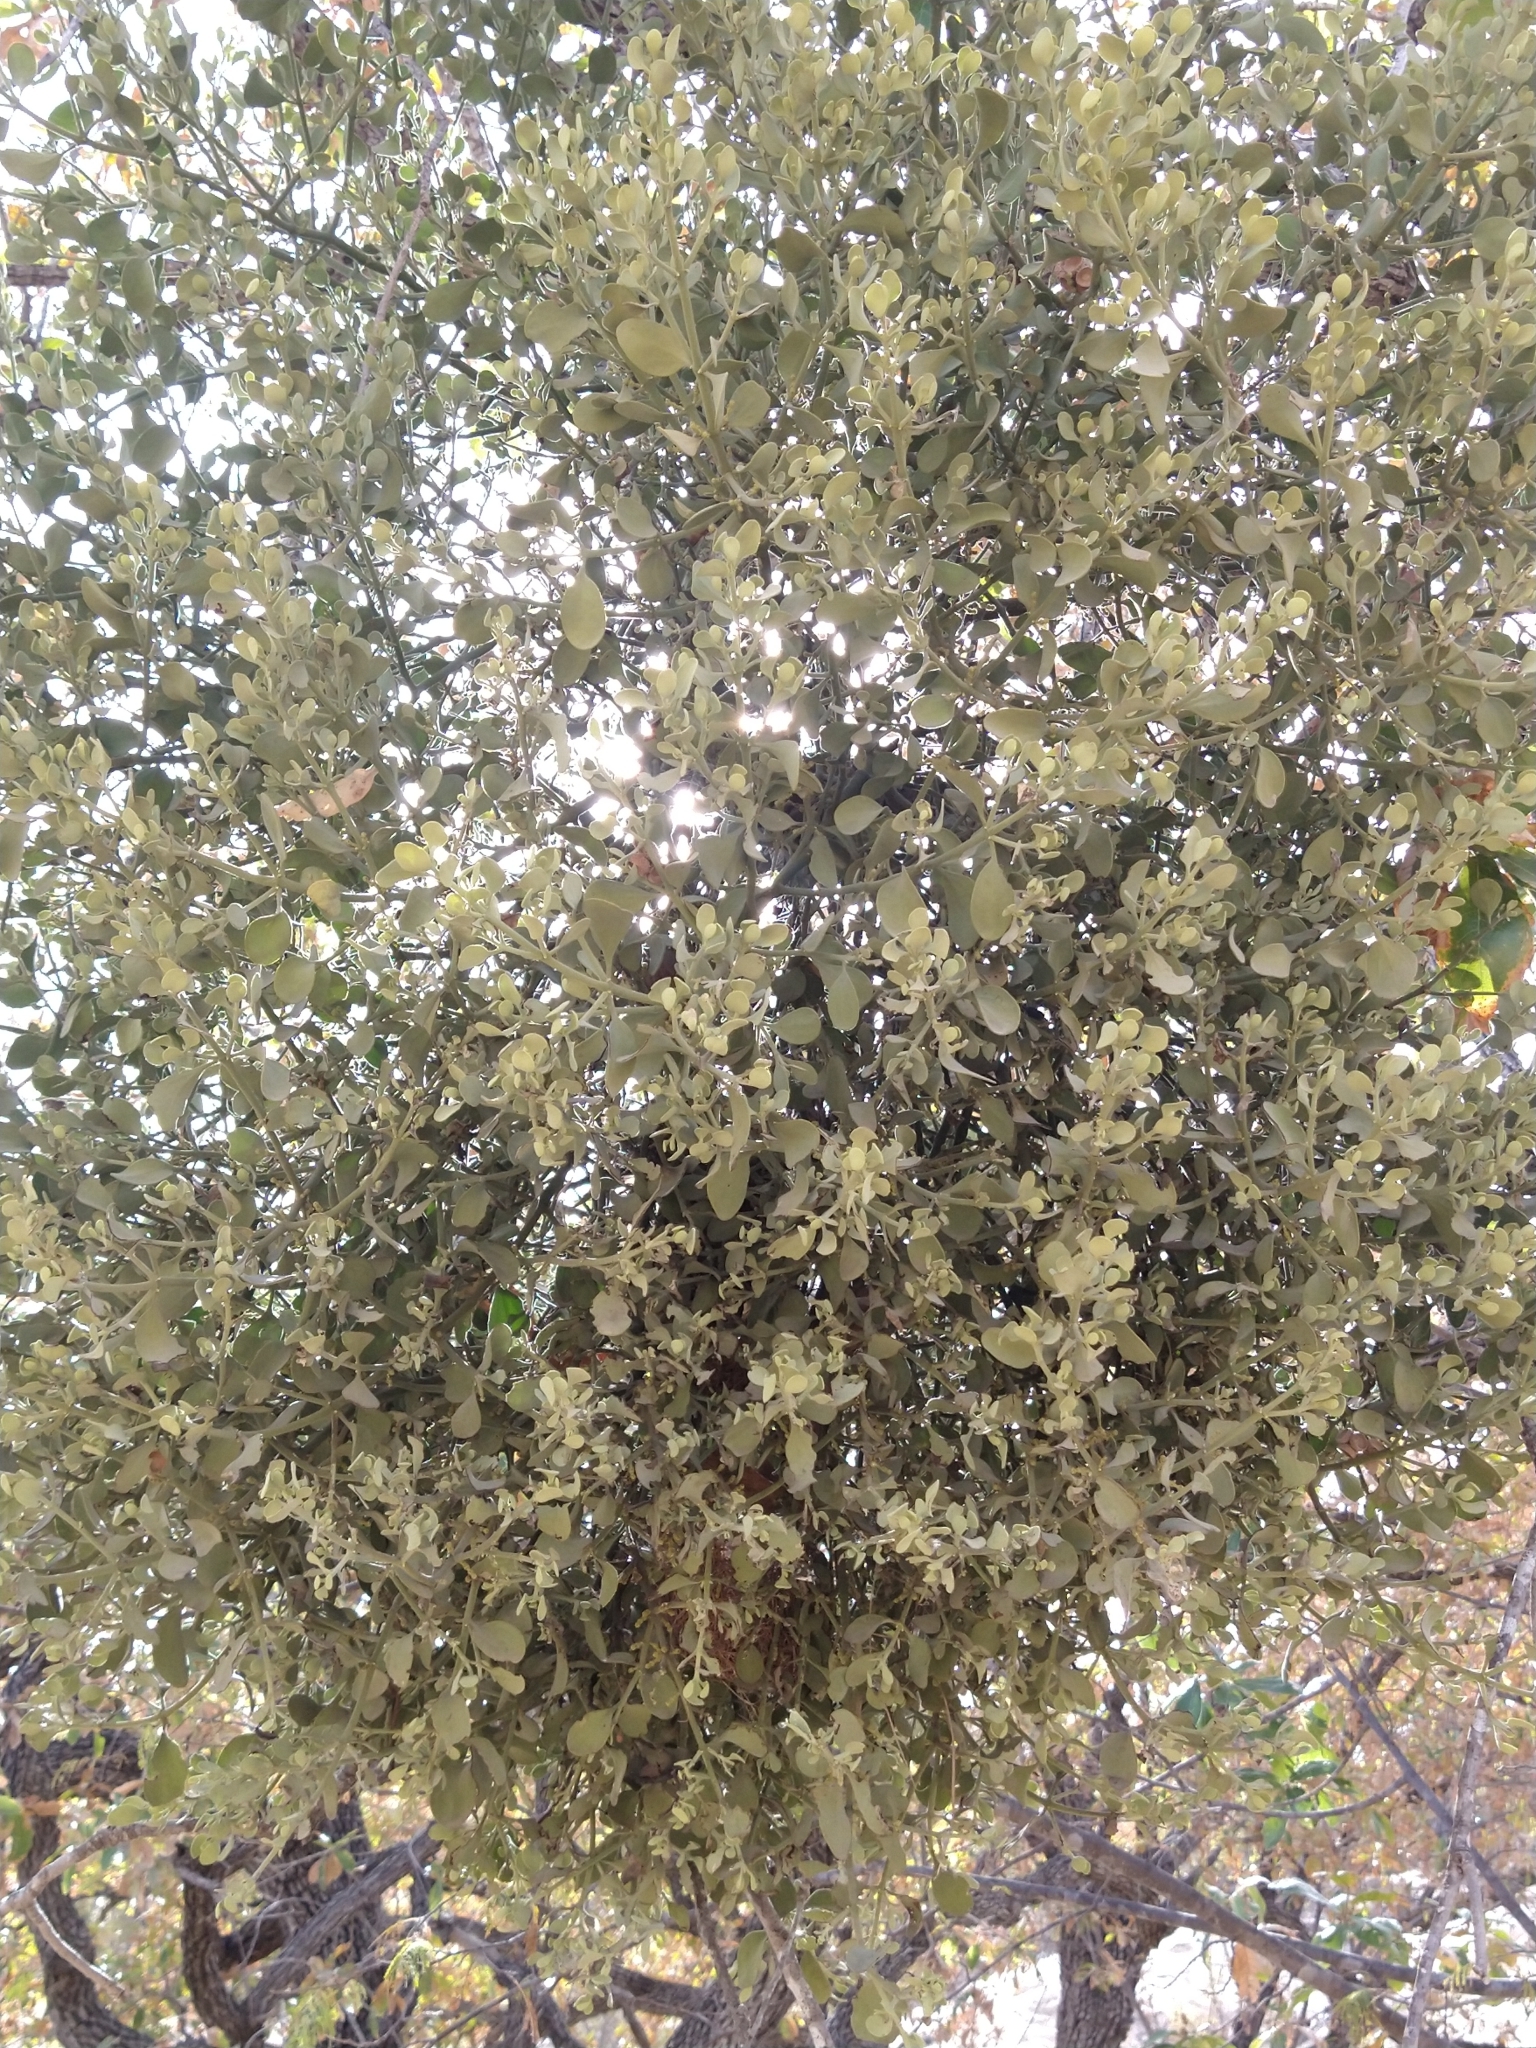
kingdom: Plantae
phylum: Tracheophyta
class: Magnoliopsida
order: Santalales
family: Viscaceae
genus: Phoradendron
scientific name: Phoradendron leucarpum
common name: Pacific mistletoe
